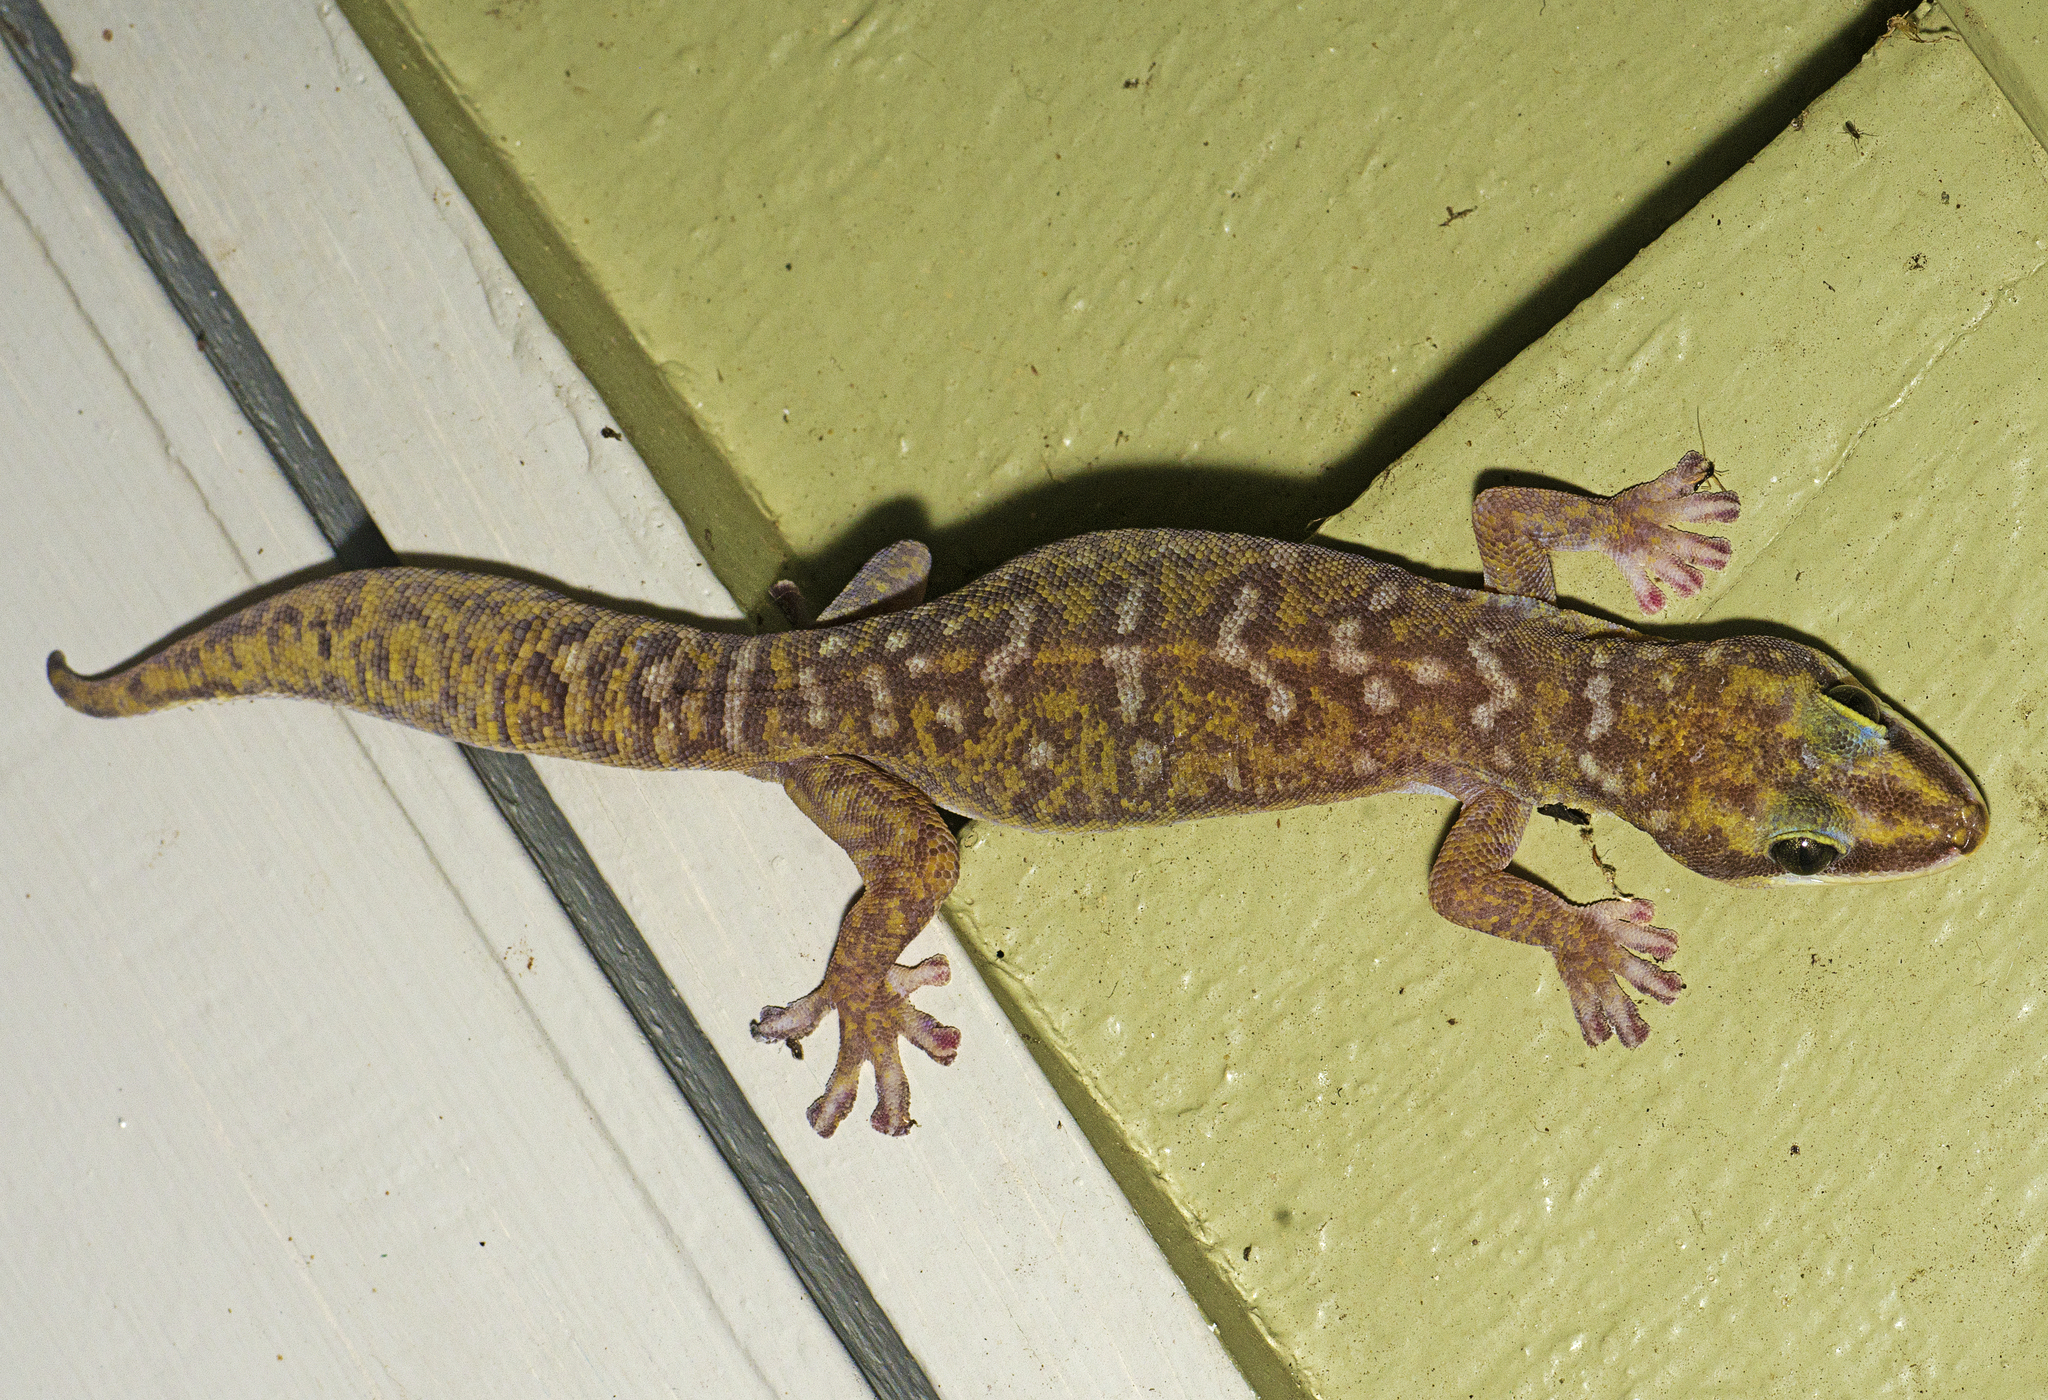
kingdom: Animalia
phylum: Chordata
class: Squamata
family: Diplodactylidae
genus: Oedura
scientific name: Oedura tryoni
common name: Southern spotted velvet gecko
